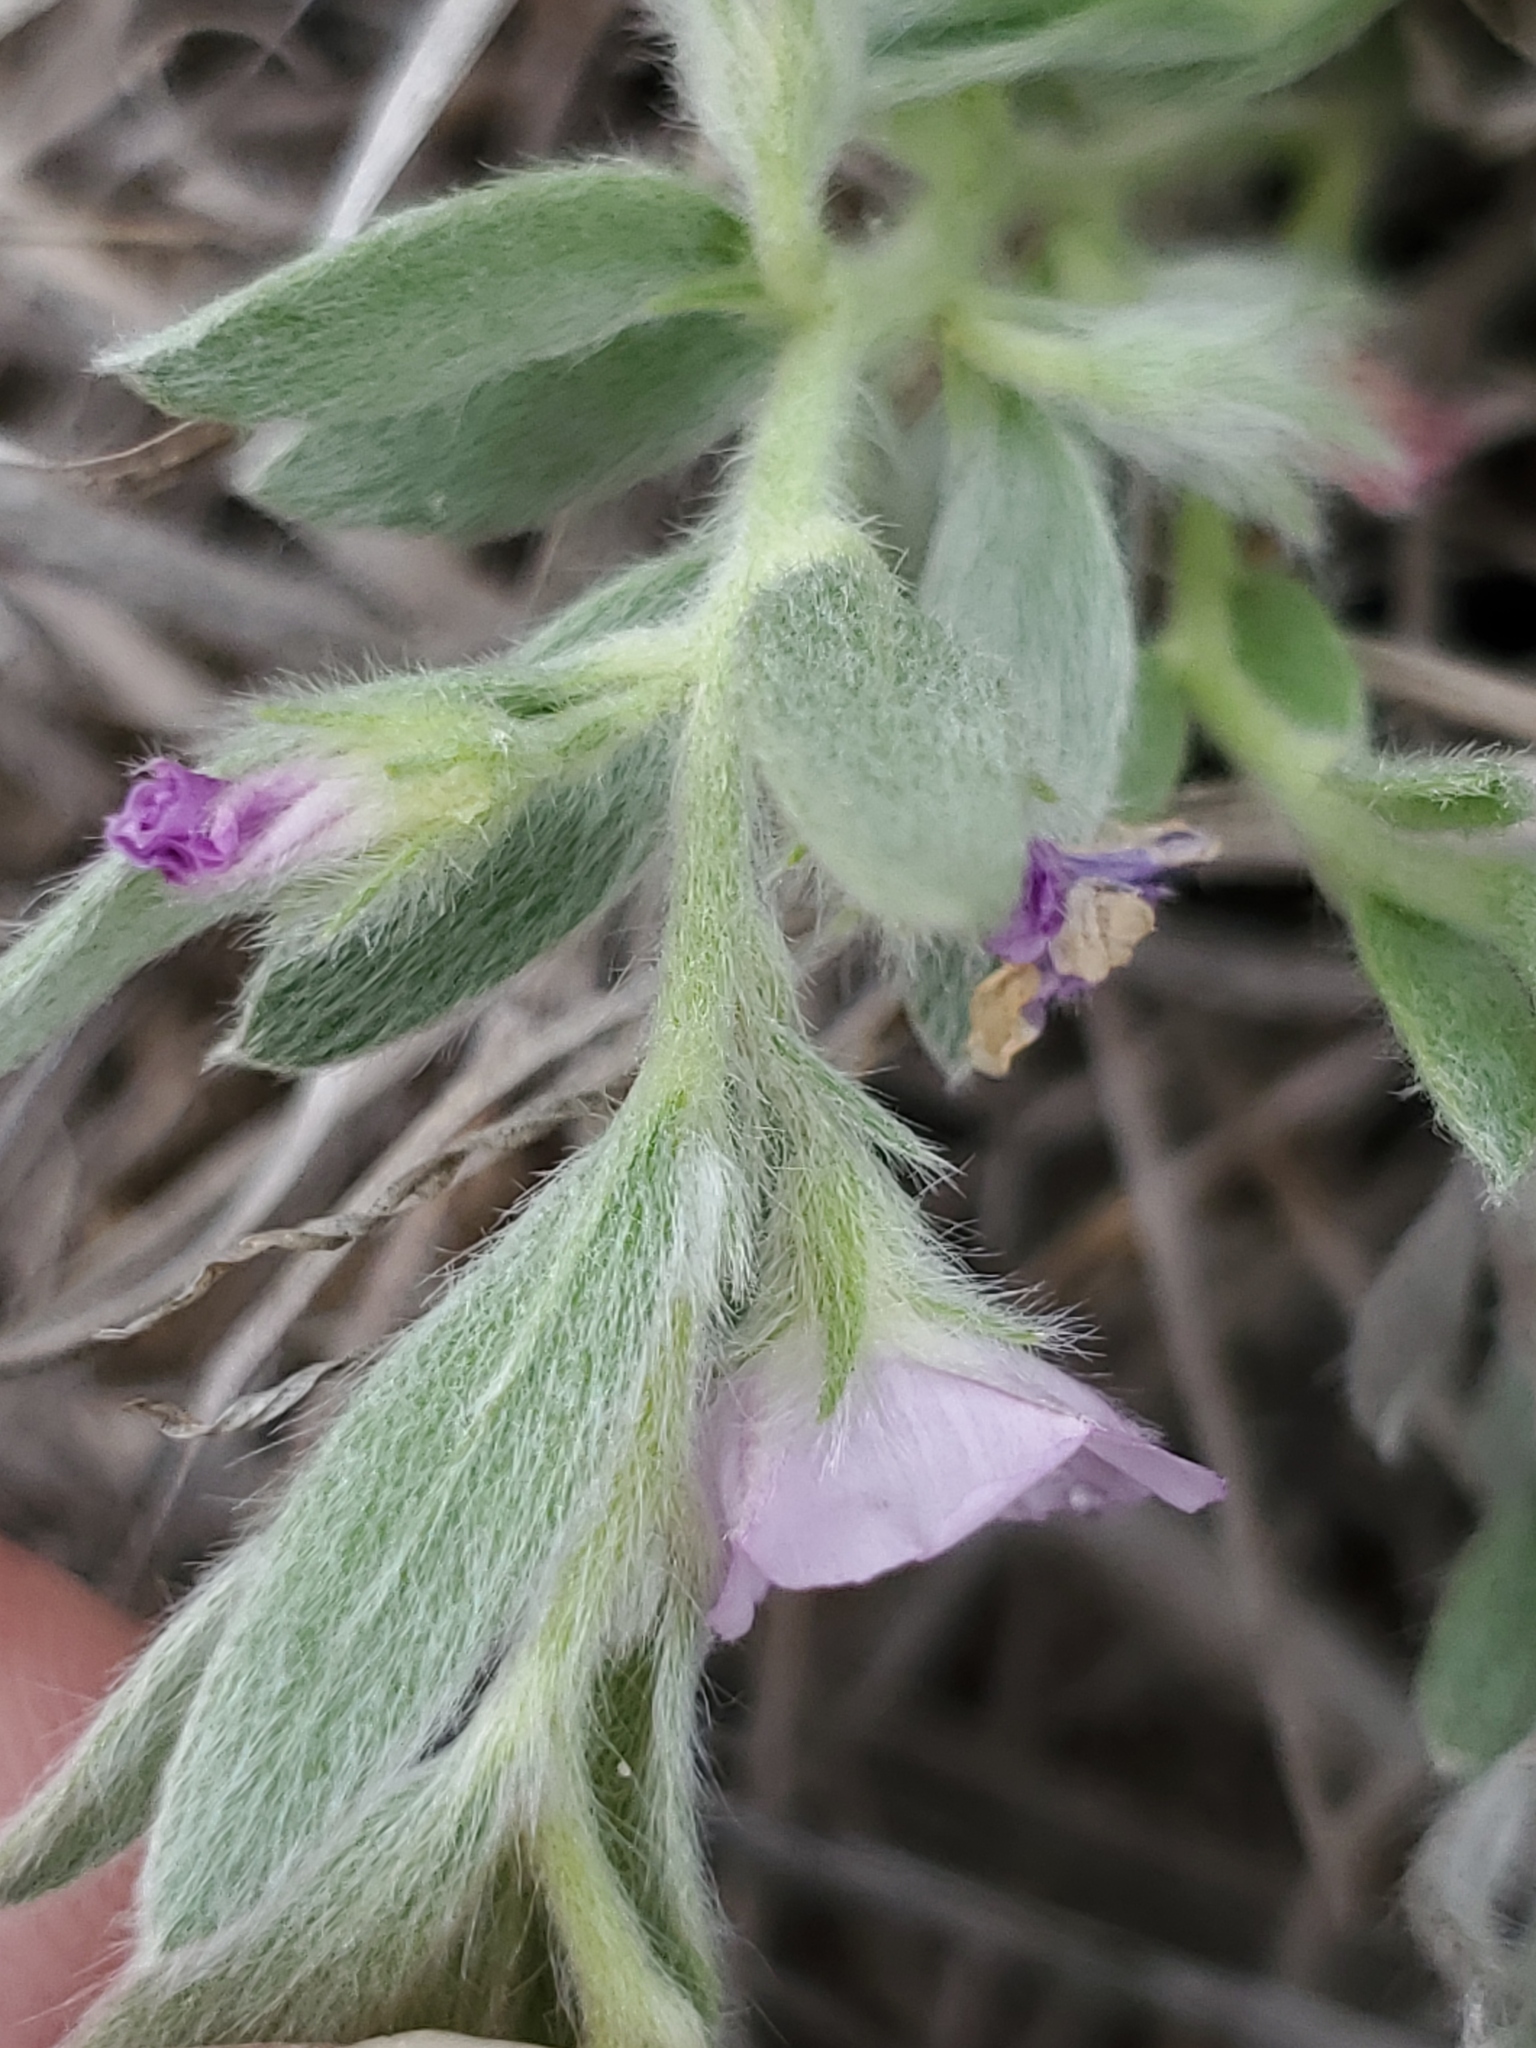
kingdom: Plantae
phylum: Tracheophyta
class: Magnoliopsida
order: Solanales
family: Convolvulaceae
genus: Evolvulus
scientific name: Evolvulus nuttallianus
